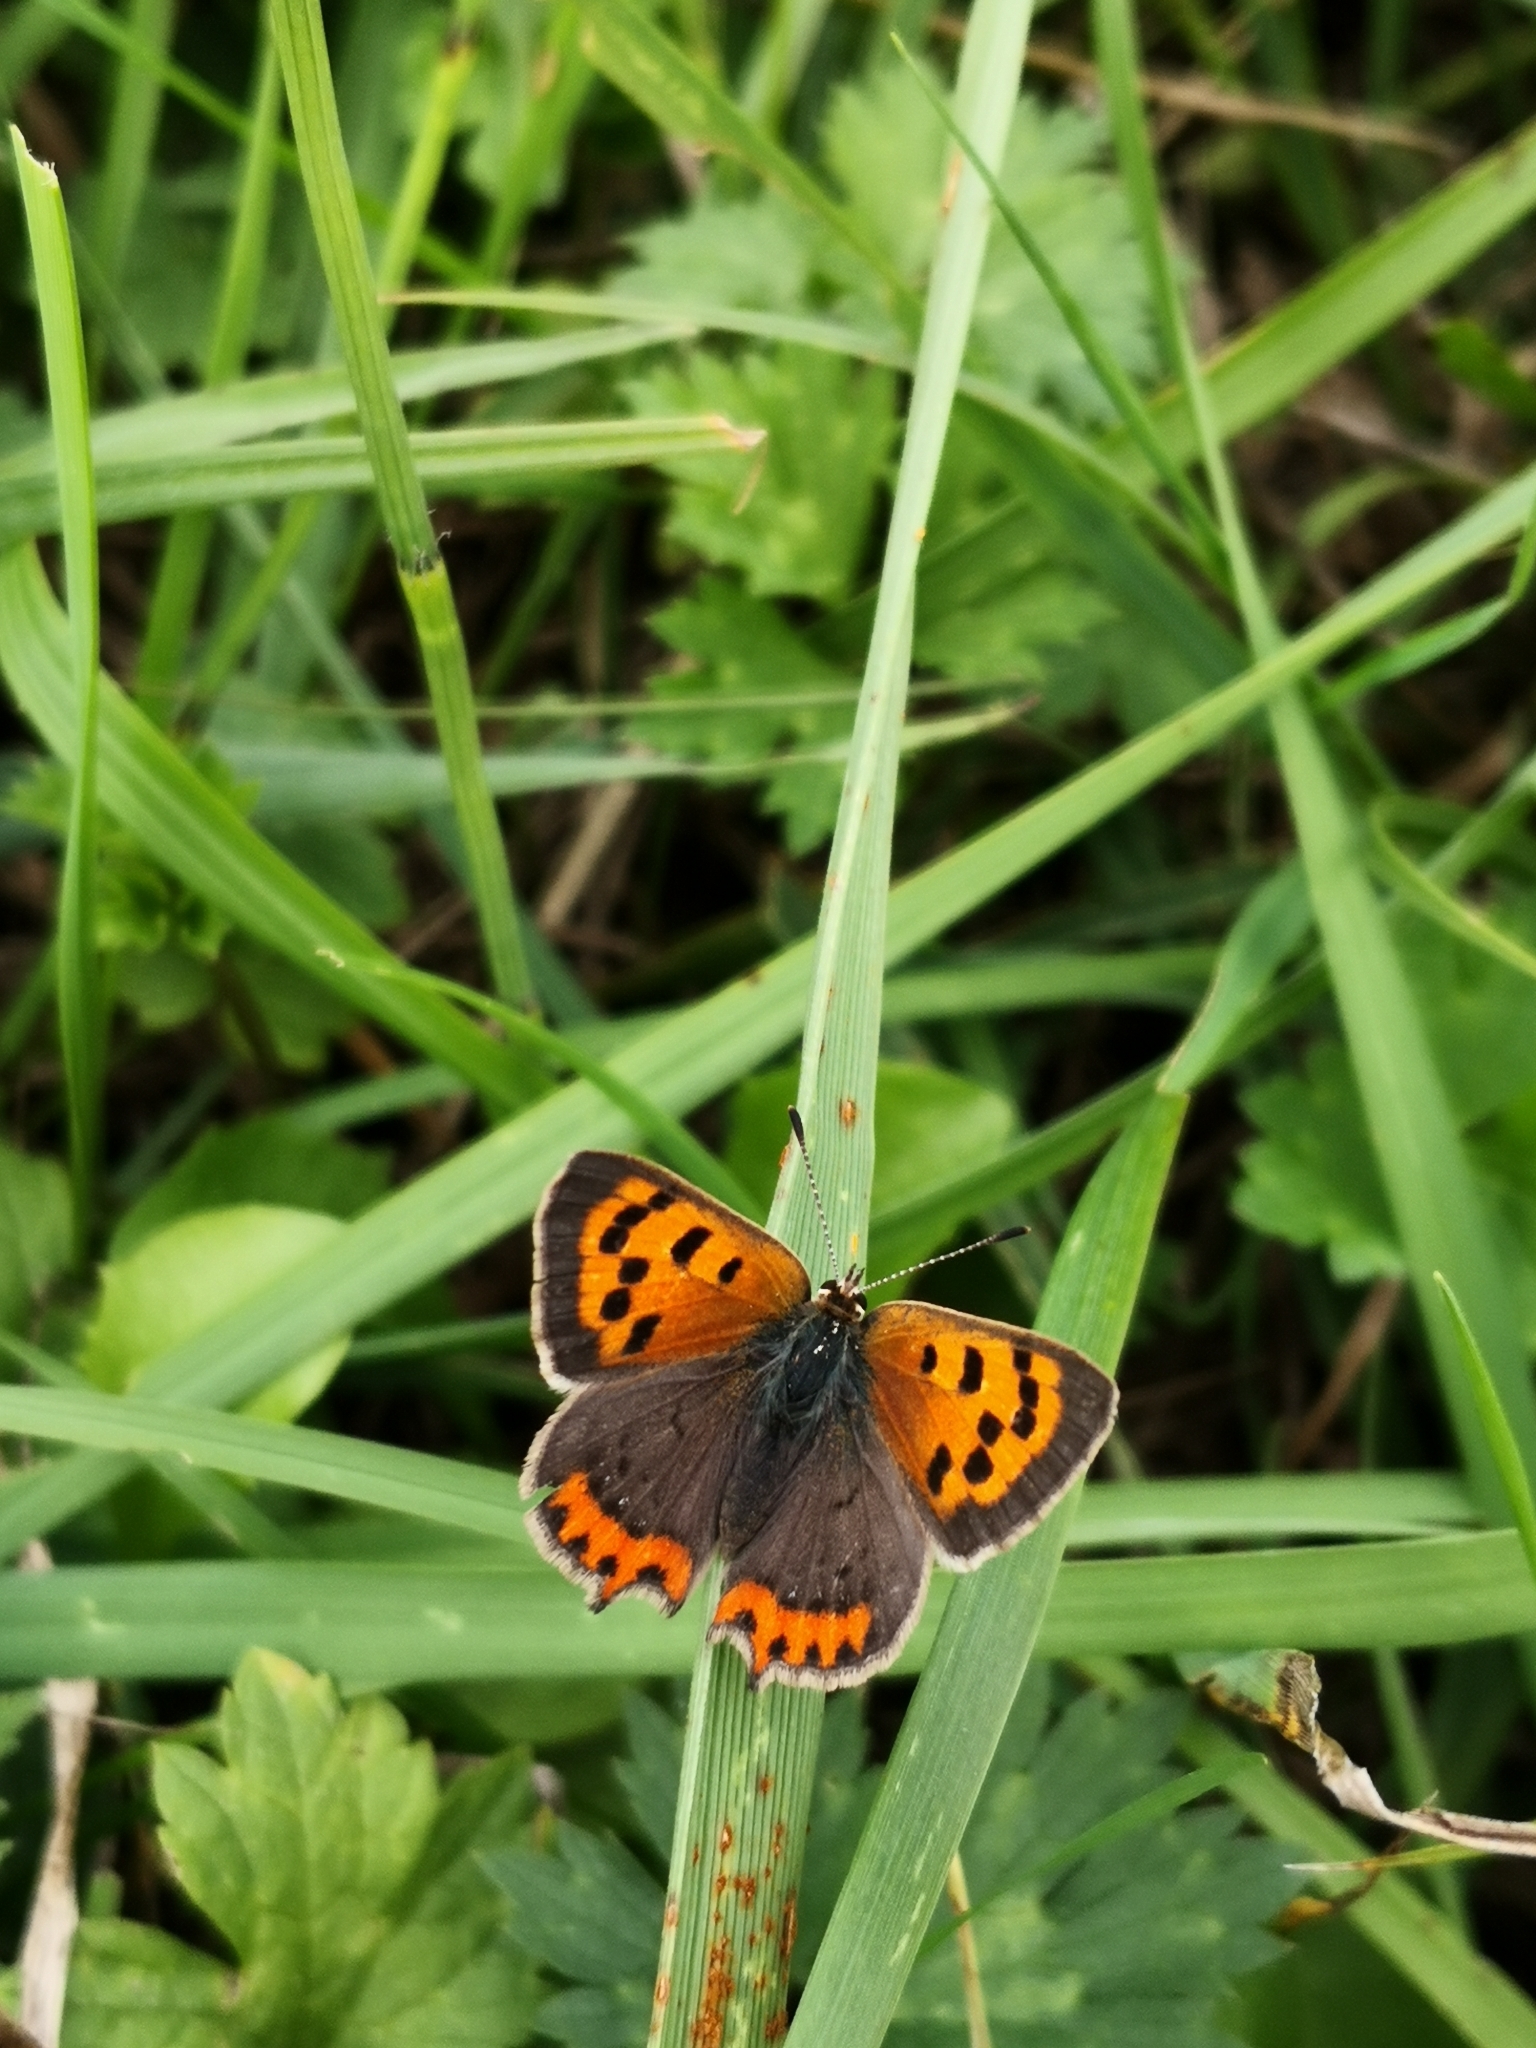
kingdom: Animalia
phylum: Arthropoda
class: Insecta
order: Lepidoptera
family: Lycaenidae
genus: Lycaena
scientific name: Lycaena phlaeas
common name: Small copper
